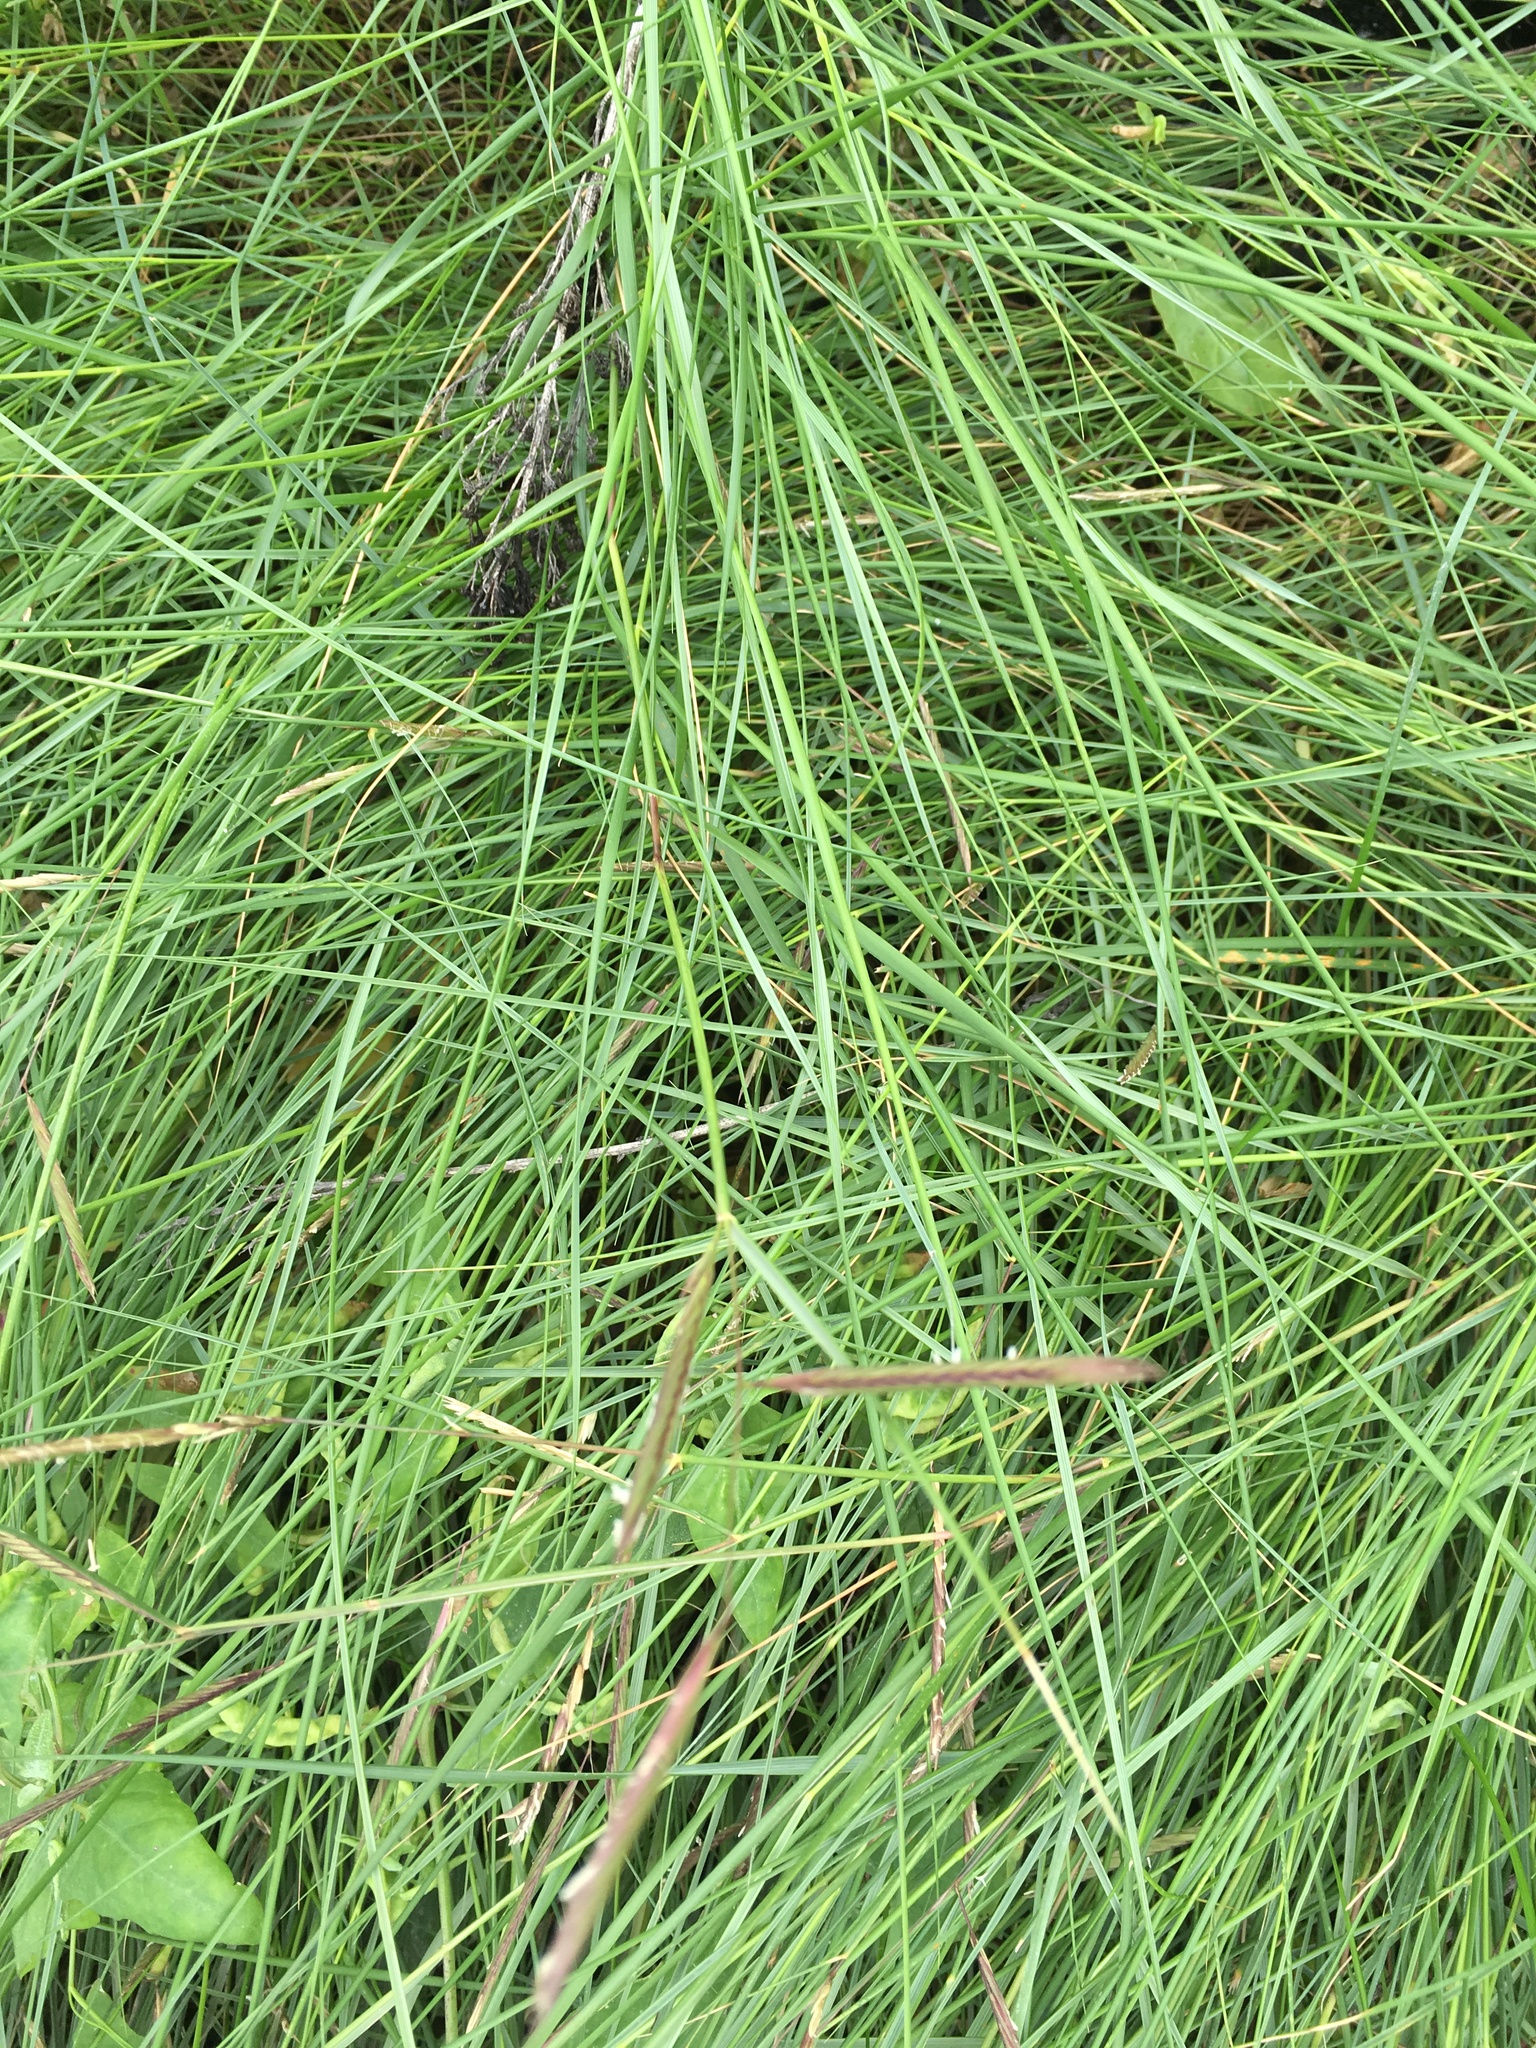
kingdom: Plantae
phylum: Tracheophyta
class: Liliopsida
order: Poales
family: Poaceae
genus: Sporobolus
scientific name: Sporobolus pumilus
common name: Highwater grass
